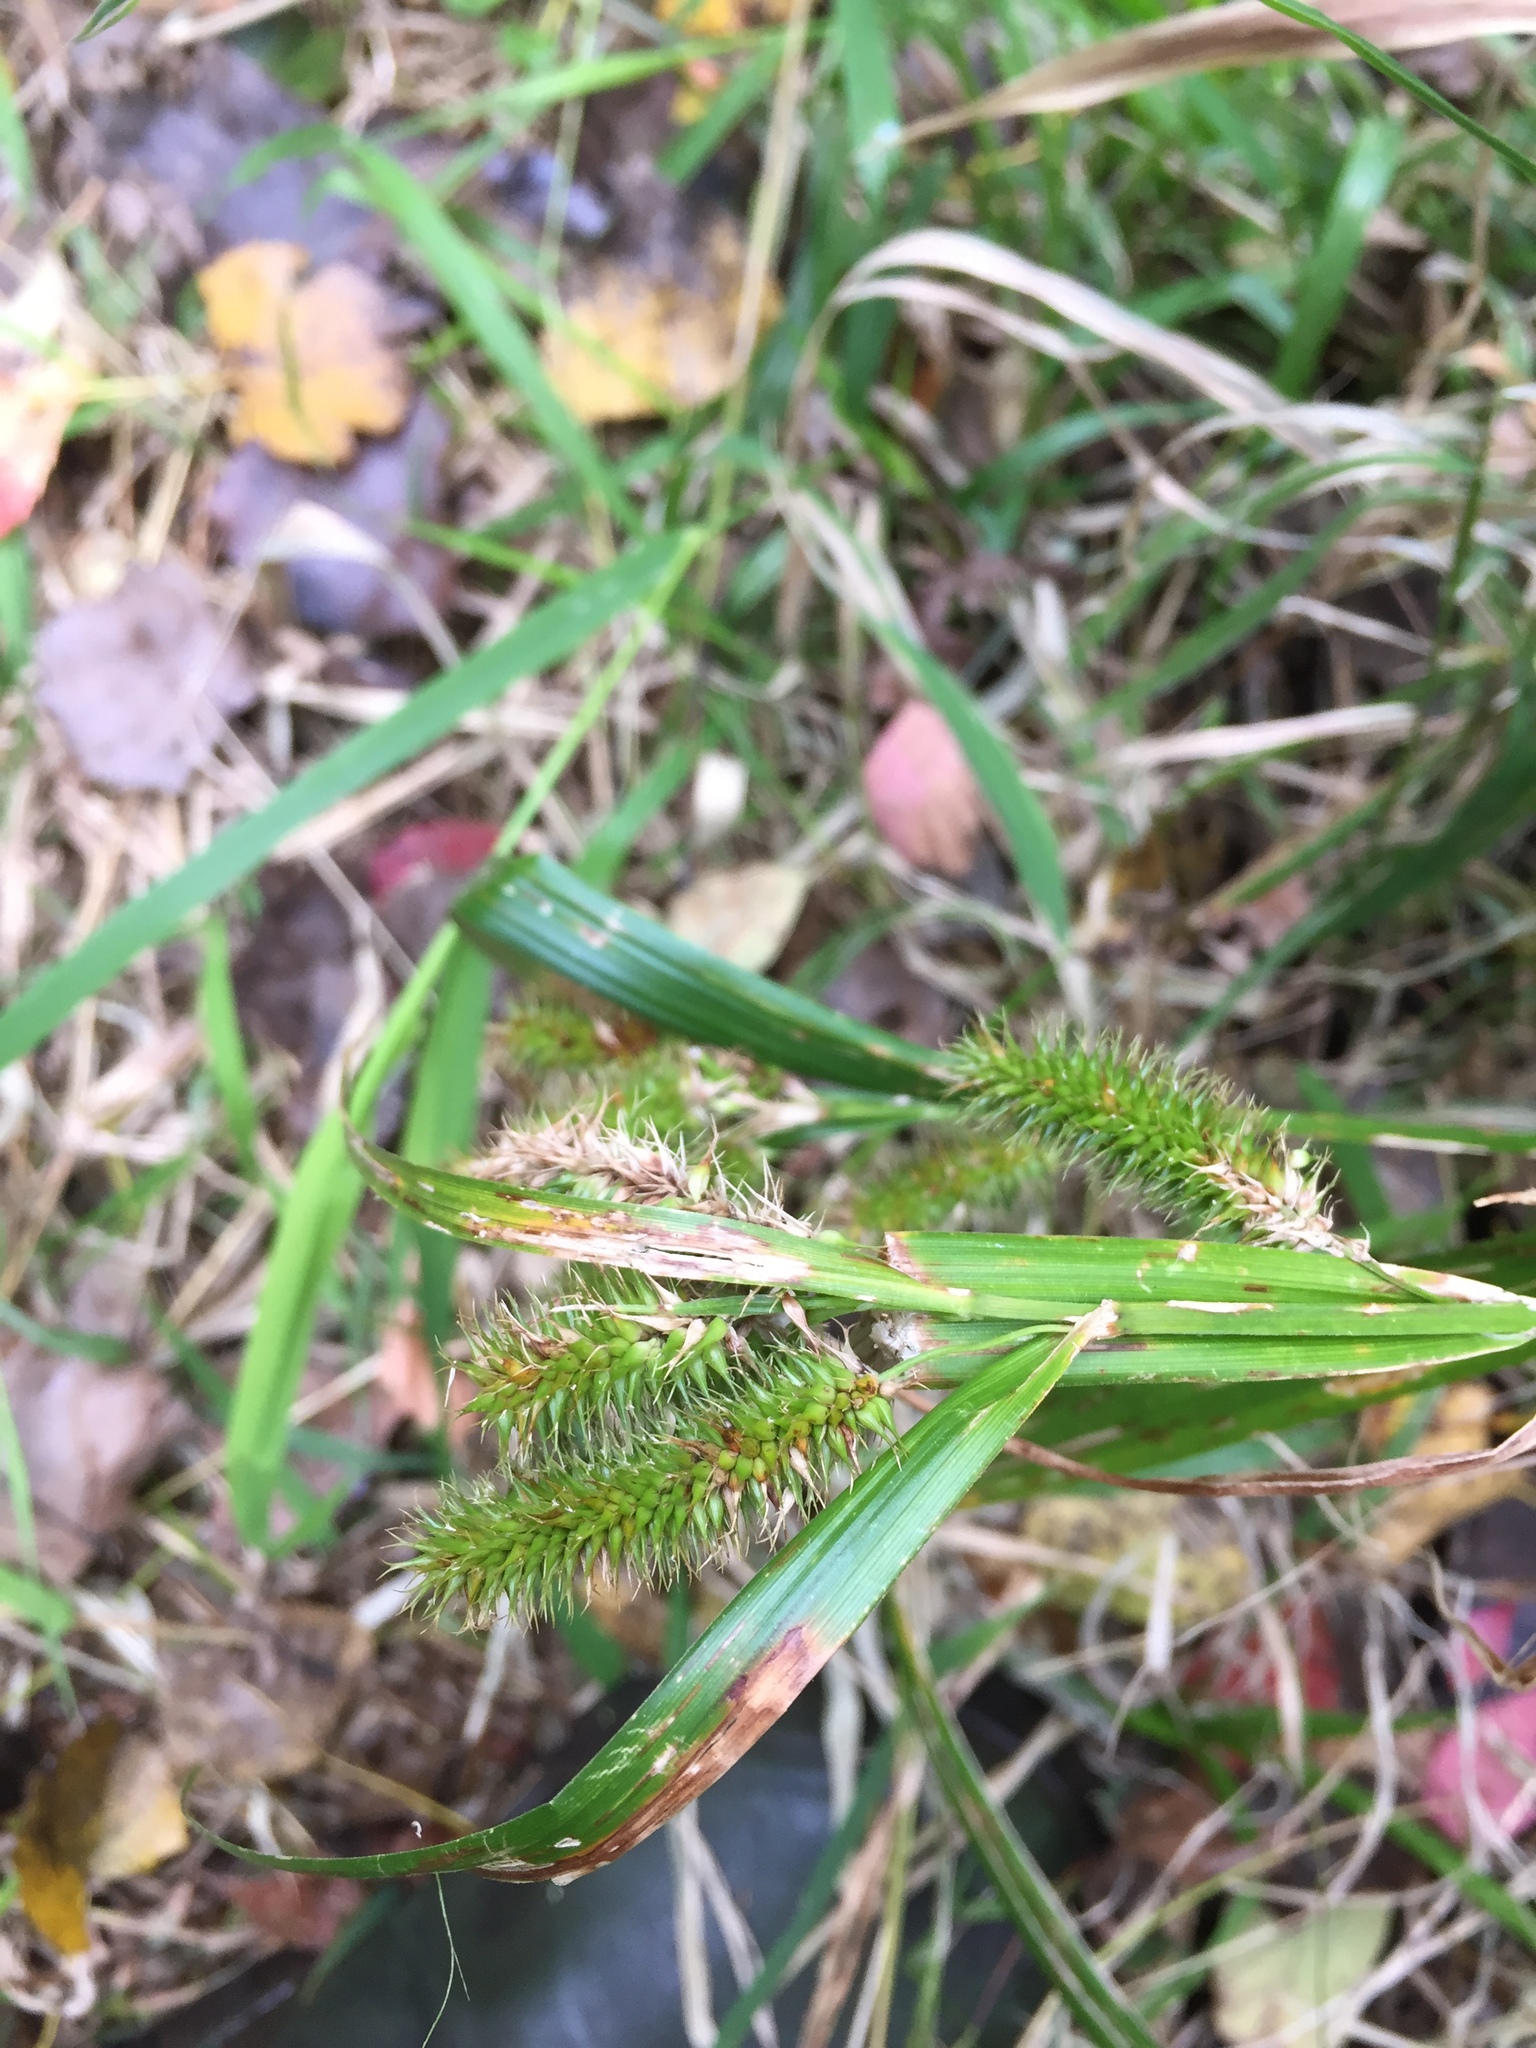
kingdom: Plantae
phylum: Tracheophyta
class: Liliopsida
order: Poales
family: Cyperaceae
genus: Carex
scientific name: Carex comosa
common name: Bristly sedge
